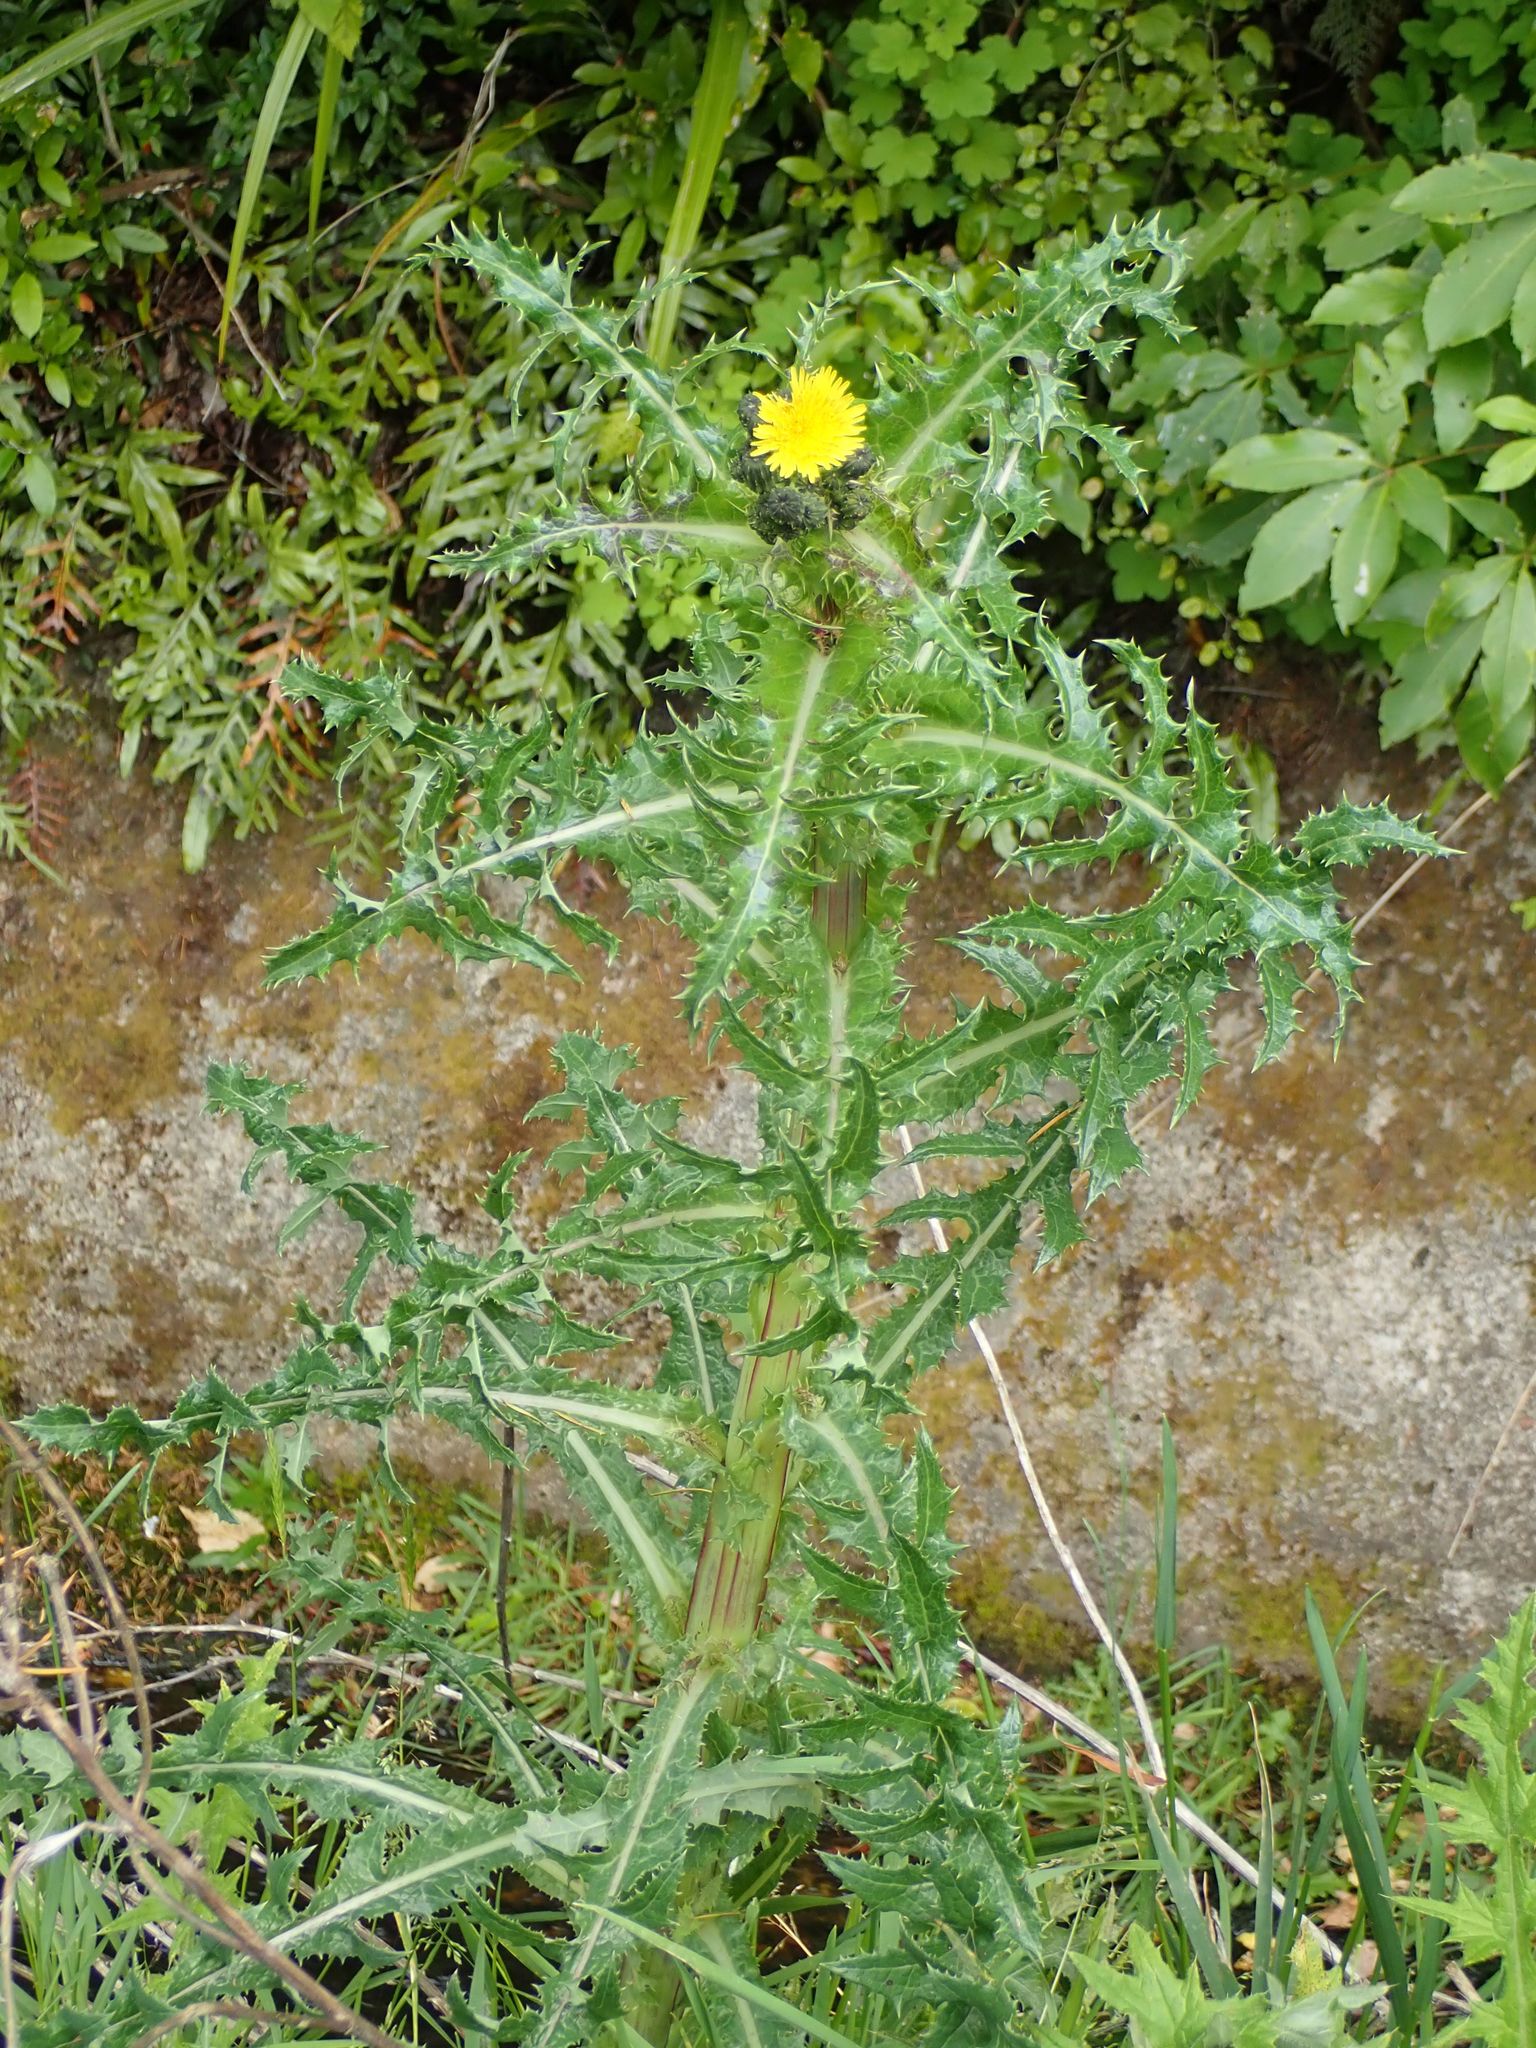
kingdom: Plantae
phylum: Tracheophyta
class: Magnoliopsida
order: Asterales
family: Asteraceae
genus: Sonchus
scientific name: Sonchus asper
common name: Prickly sow-thistle
